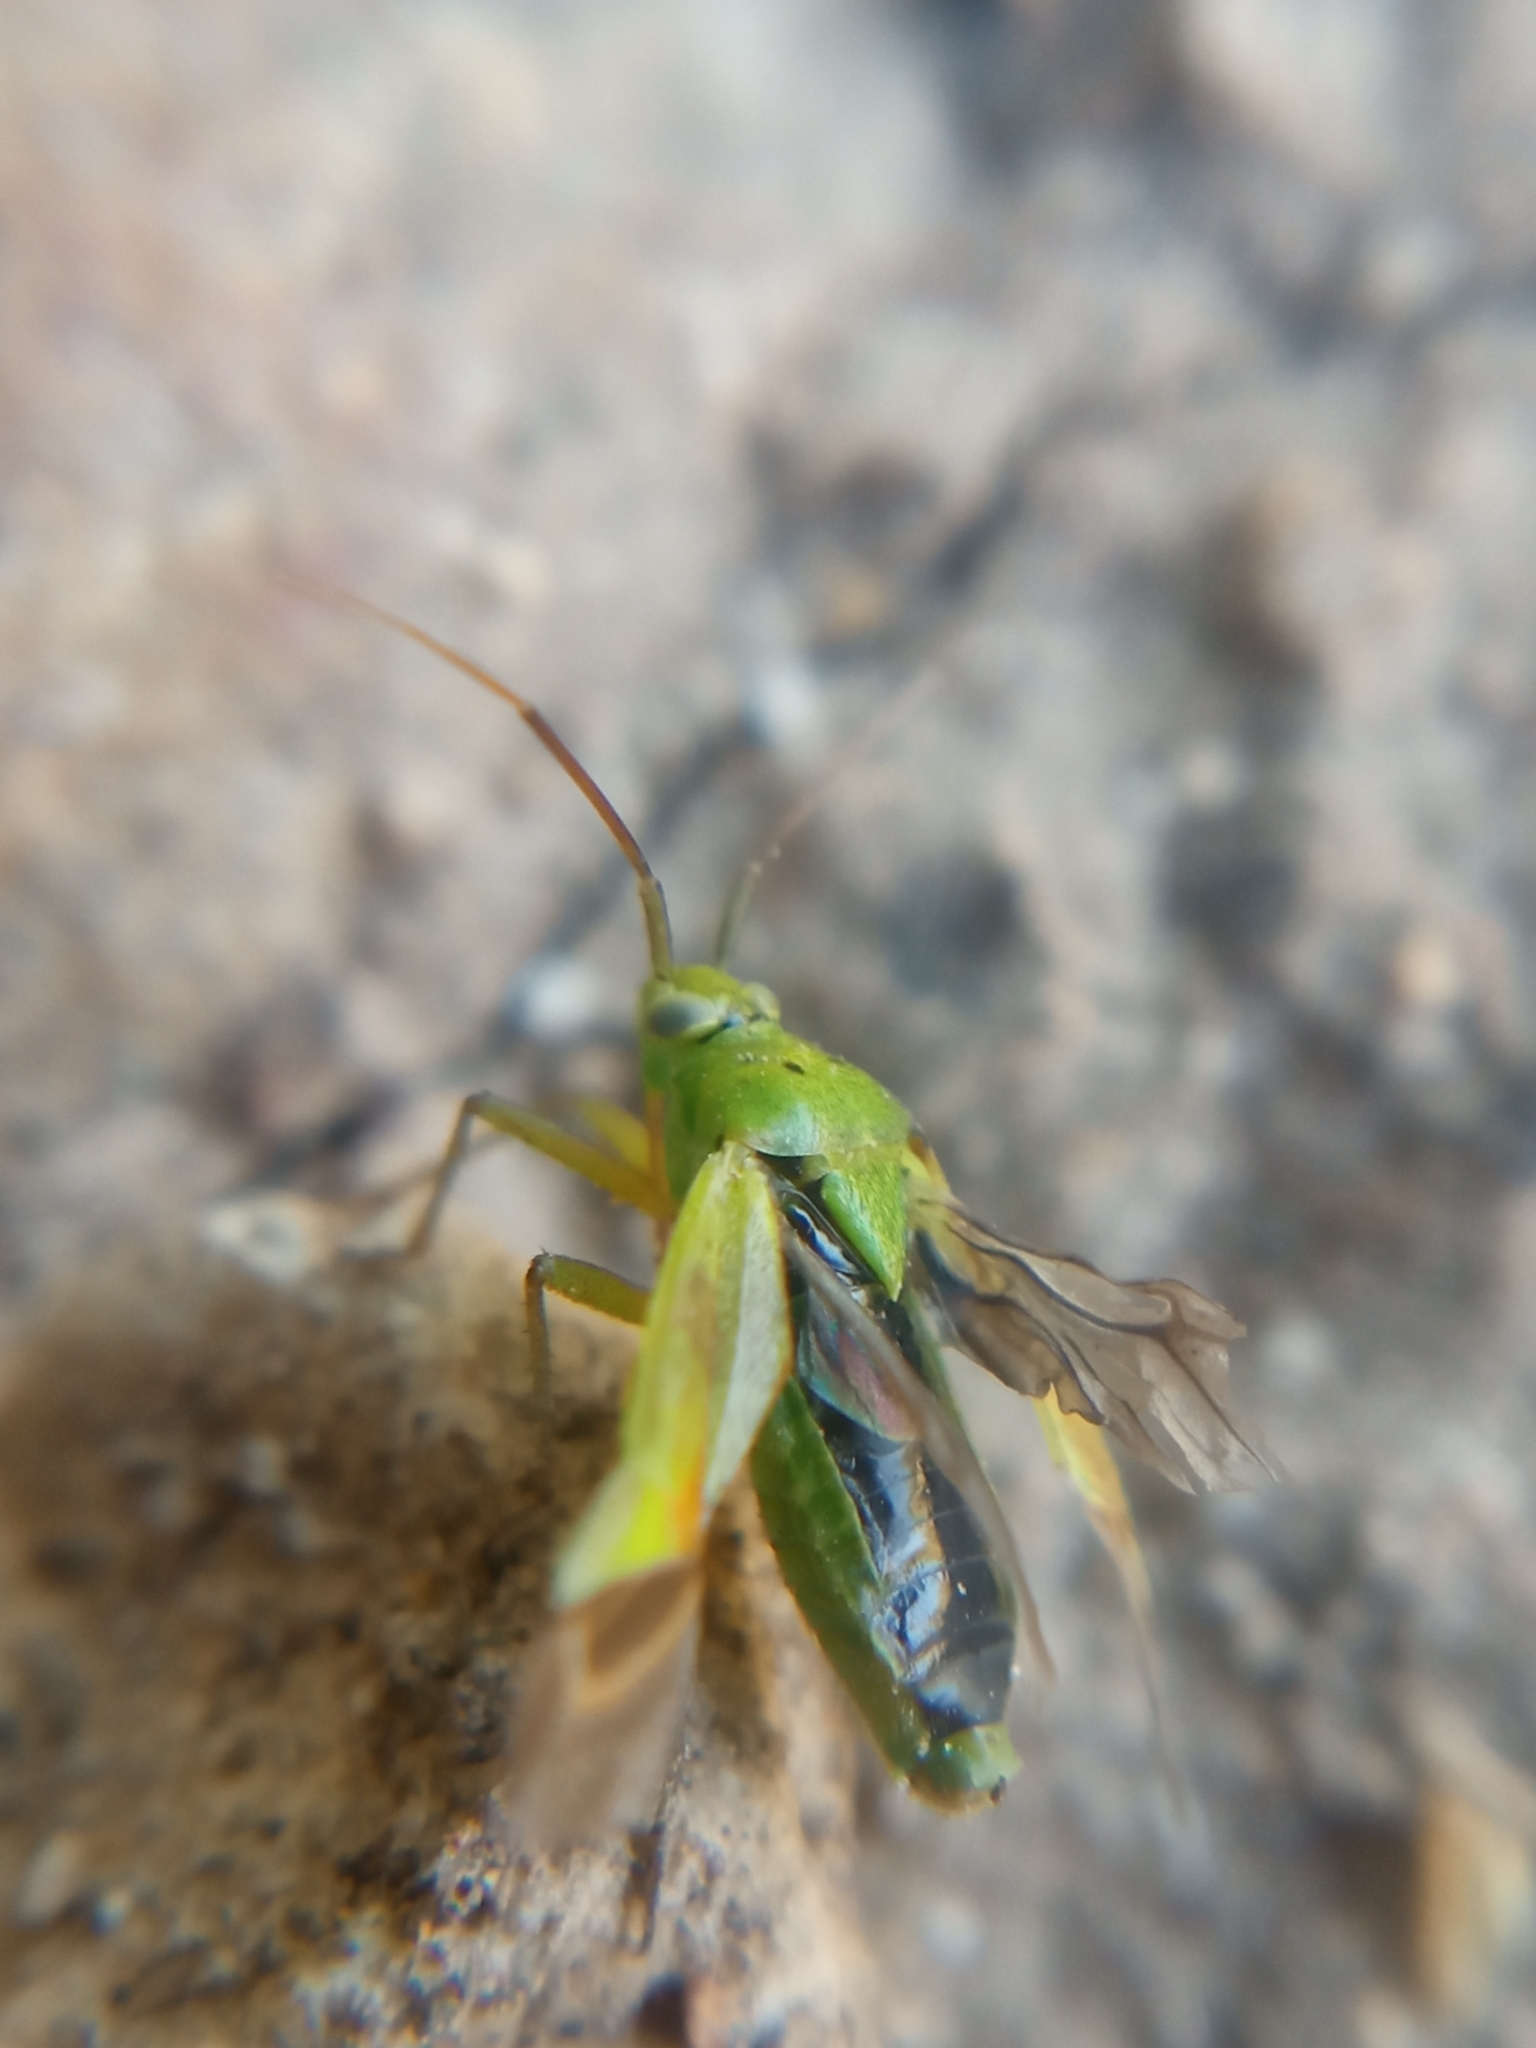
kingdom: Animalia
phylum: Arthropoda
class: Insecta
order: Hemiptera
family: Miridae
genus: Closterotomus
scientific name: Closterotomus norvegicus
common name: Plant bug
